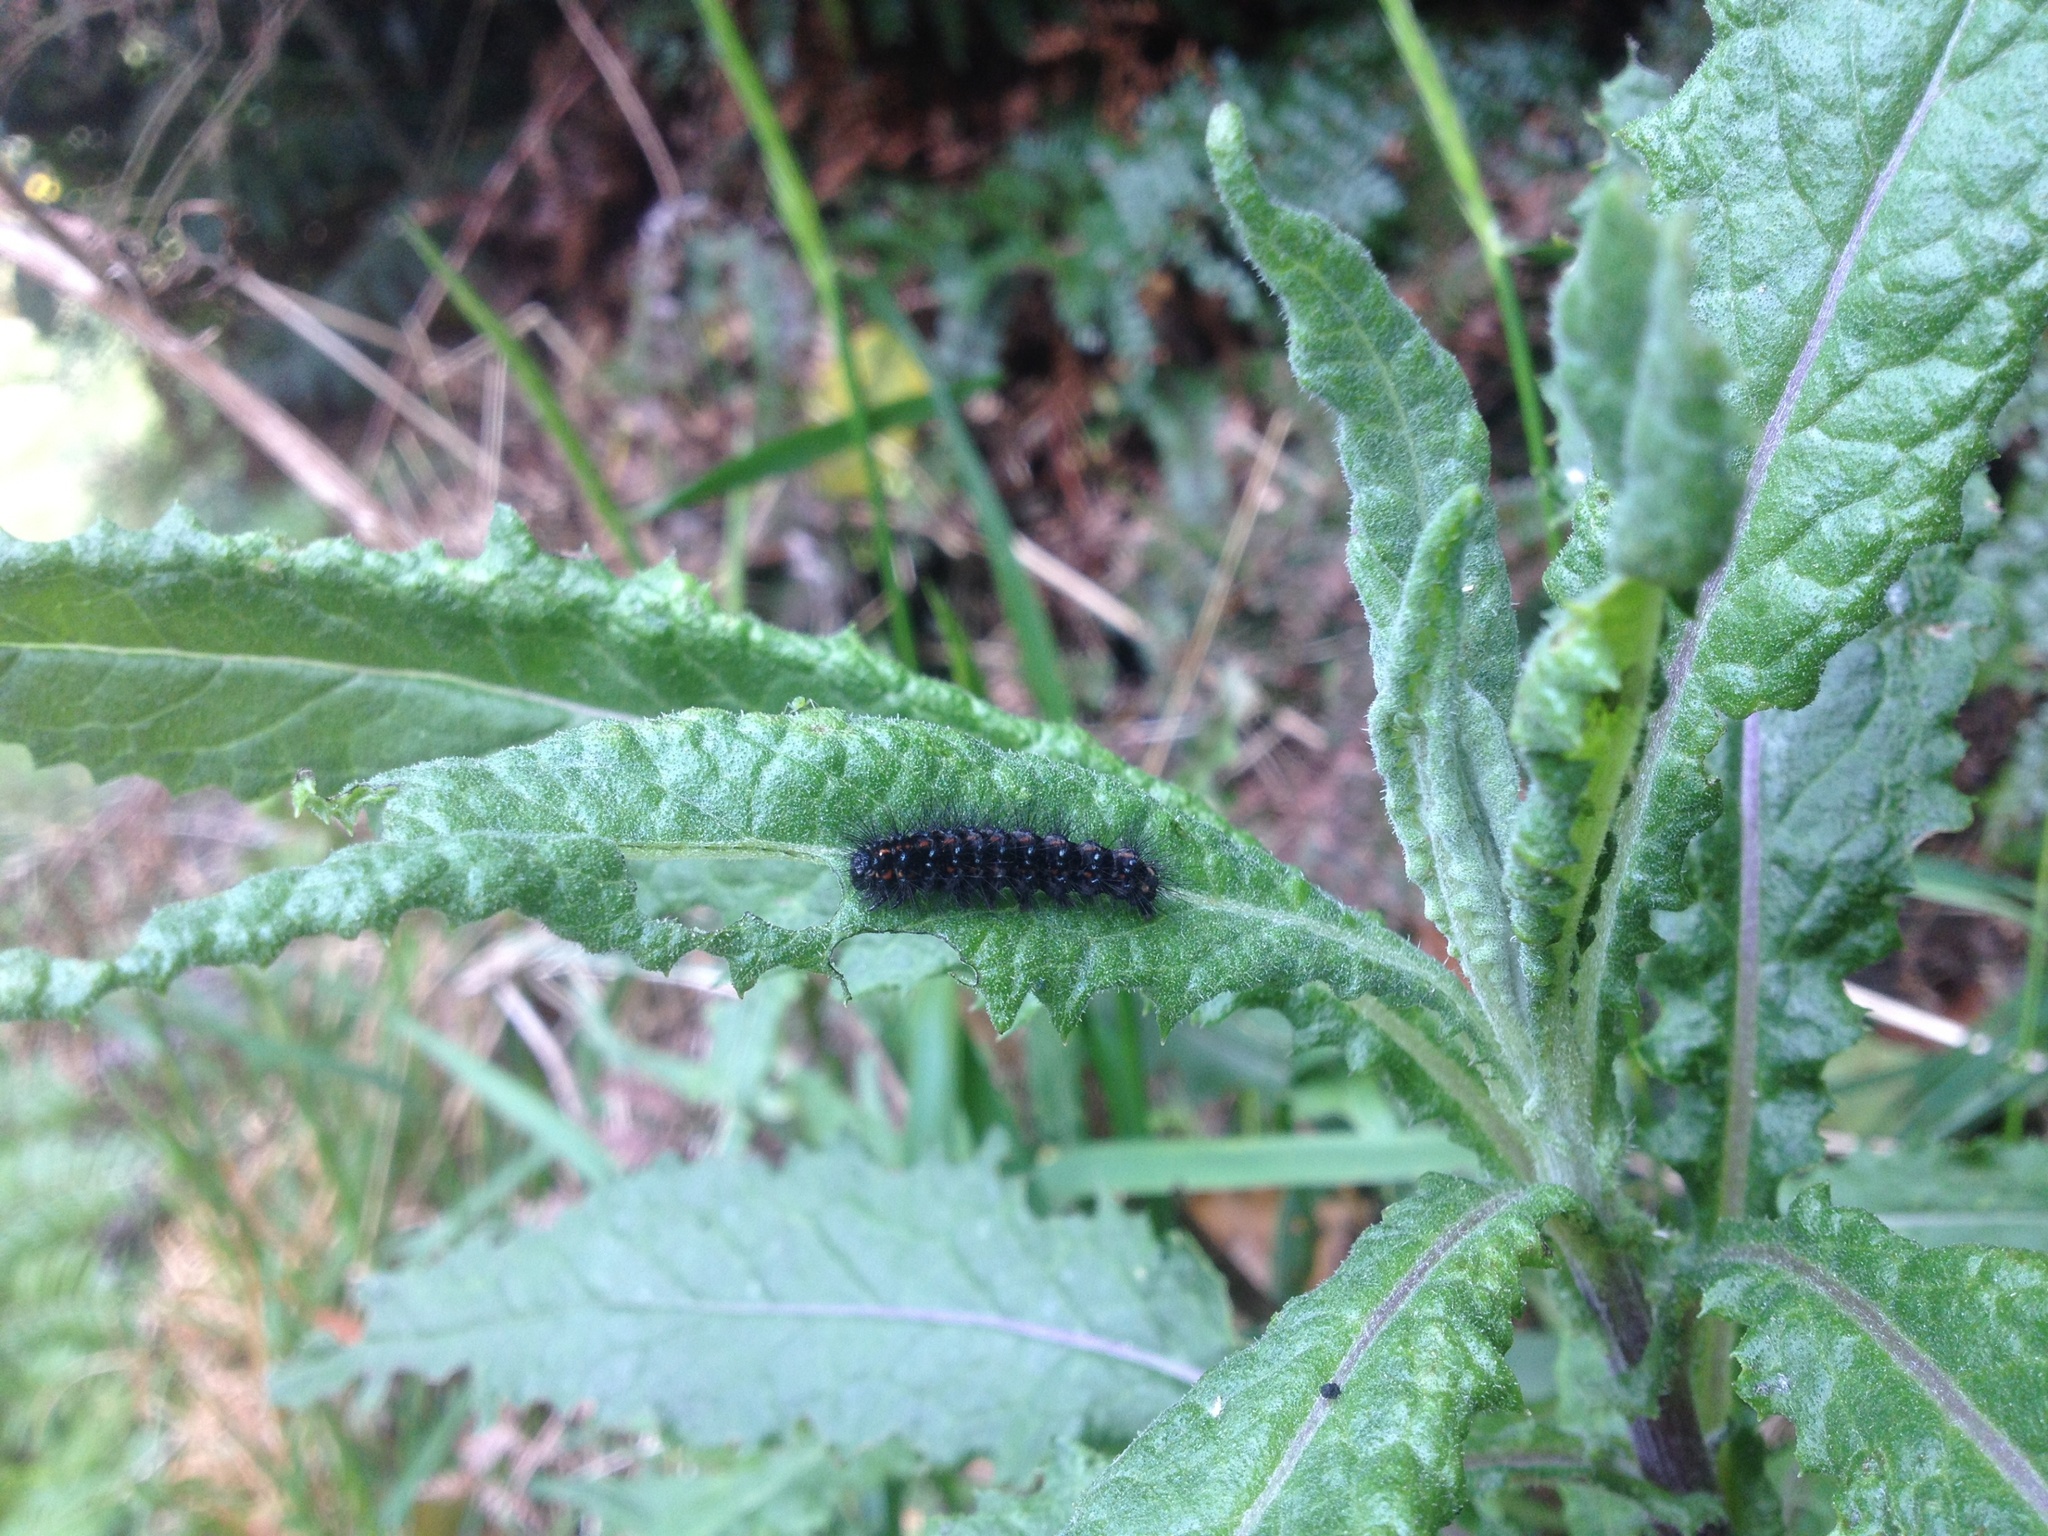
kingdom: Animalia
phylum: Arthropoda
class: Insecta
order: Lepidoptera
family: Erebidae
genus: Nyctemera
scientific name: Nyctemera annulatum
